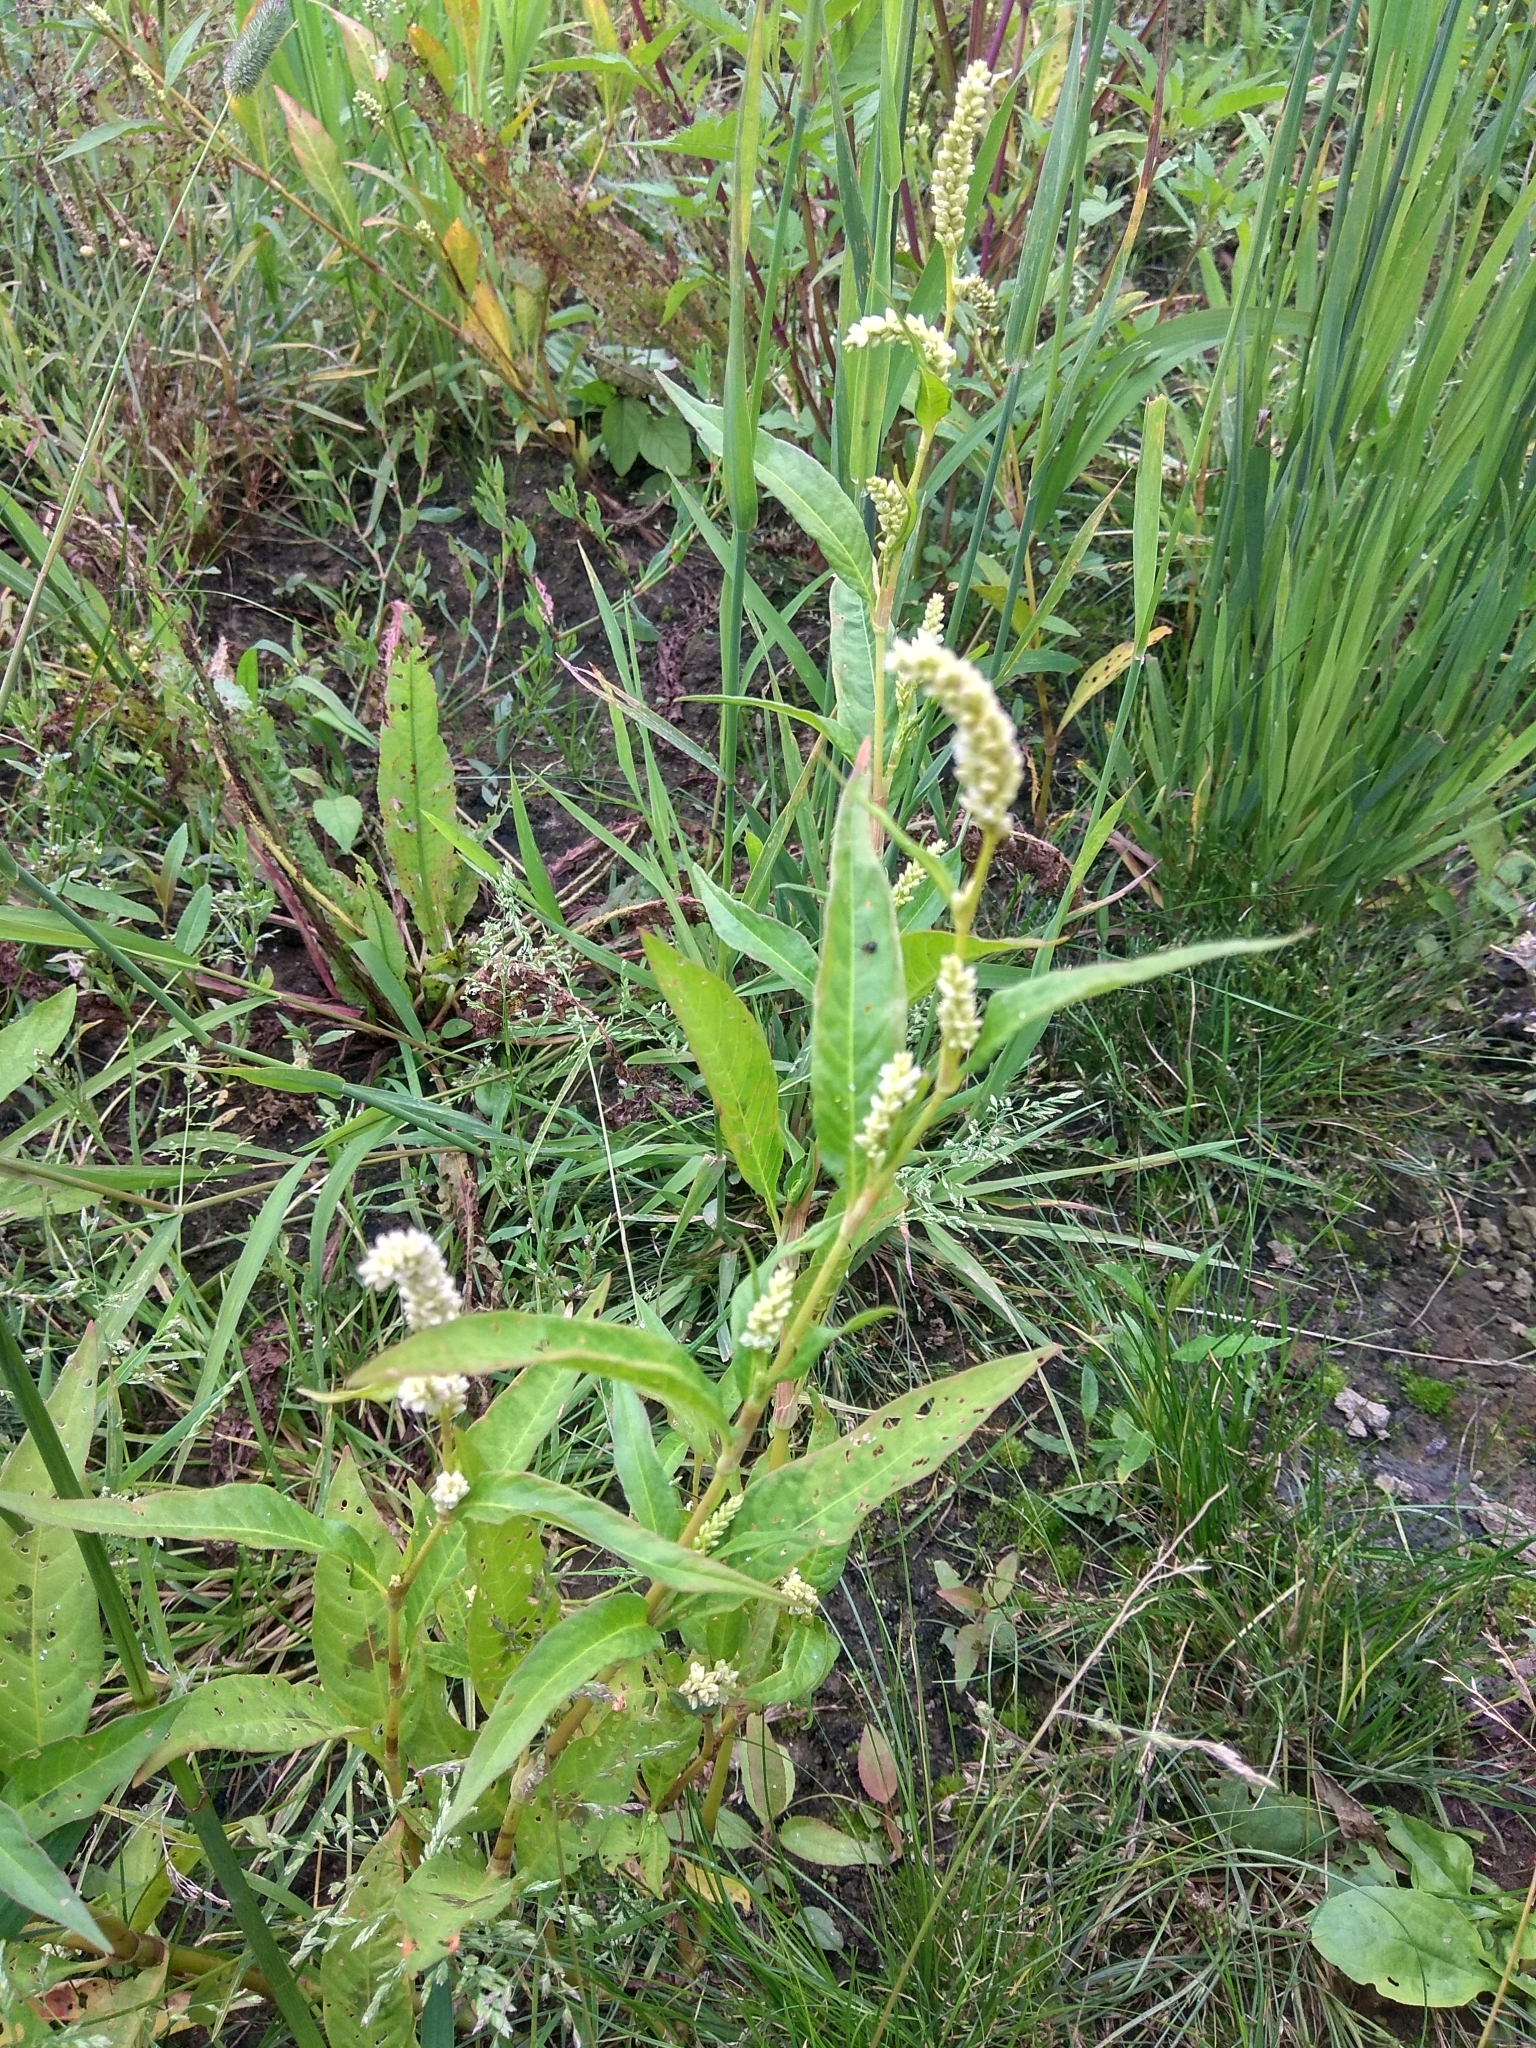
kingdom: Plantae
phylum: Tracheophyta
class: Magnoliopsida
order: Caryophyllales
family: Polygonaceae
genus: Persicaria
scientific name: Persicaria lapathifolia
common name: Curlytop knotweed
